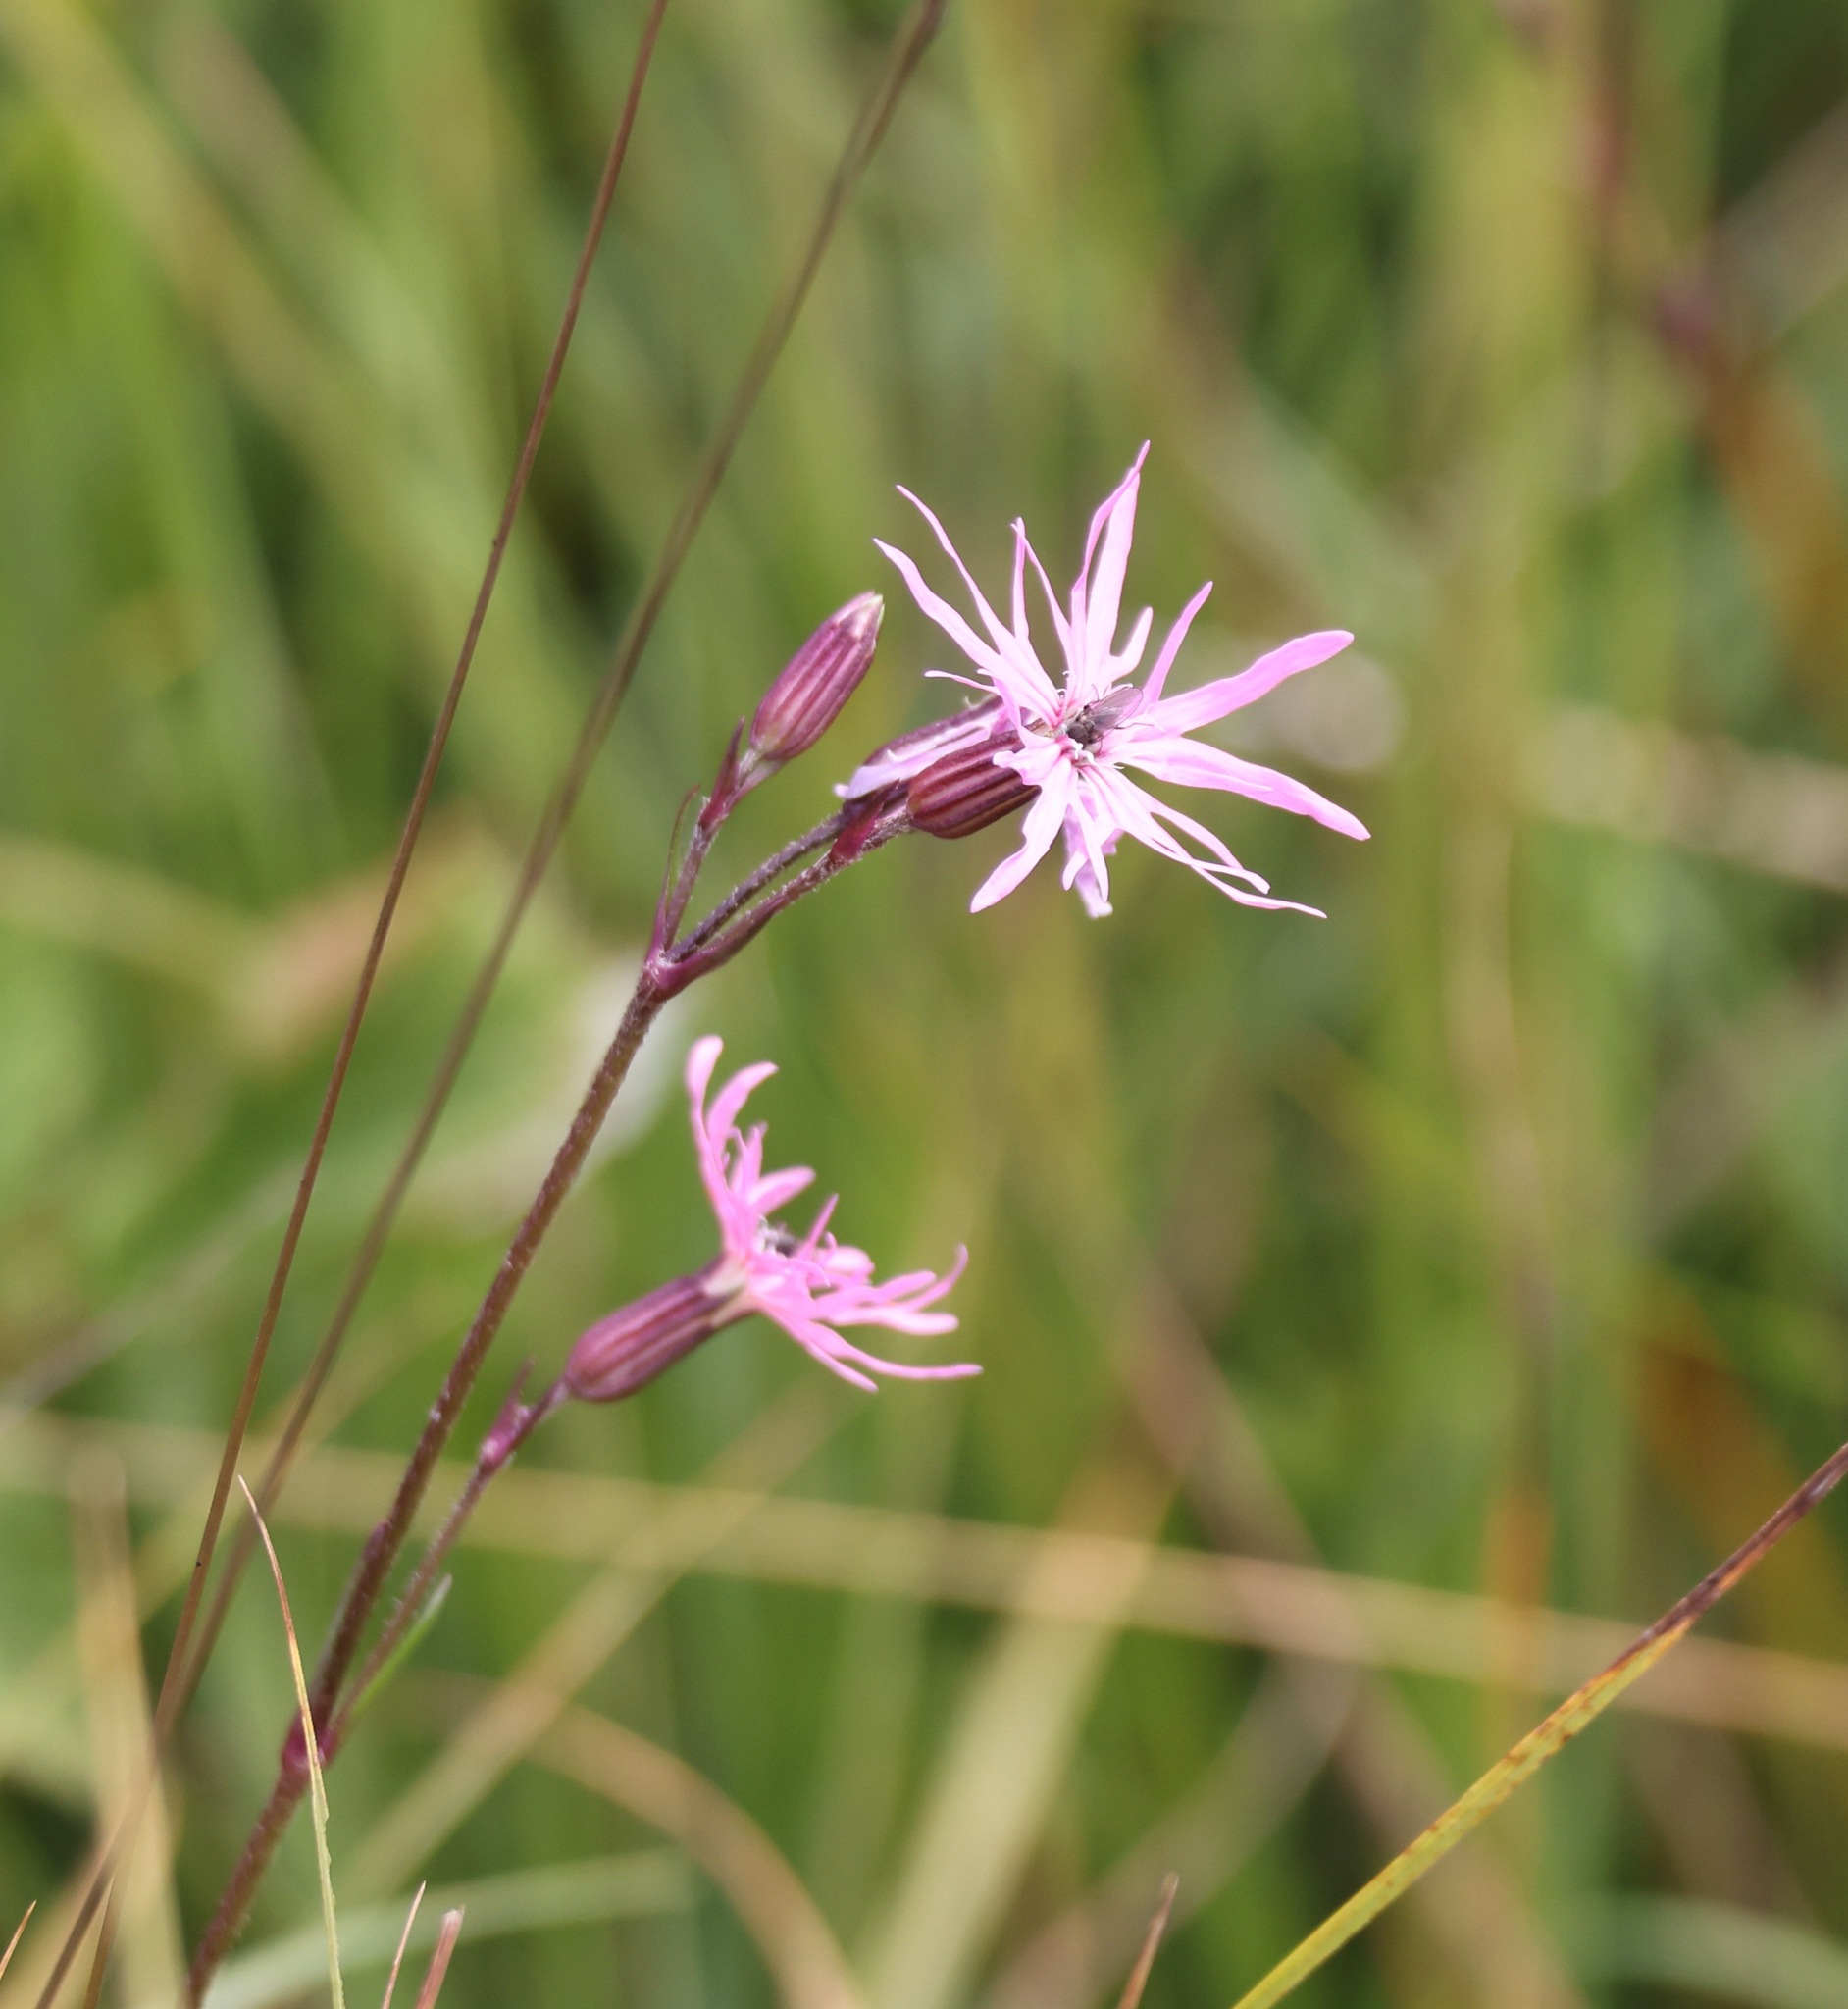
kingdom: Plantae
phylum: Tracheophyta
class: Magnoliopsida
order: Caryophyllales
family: Caryophyllaceae
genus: Silene
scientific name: Silene flos-cuculi
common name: Ragged-robin
